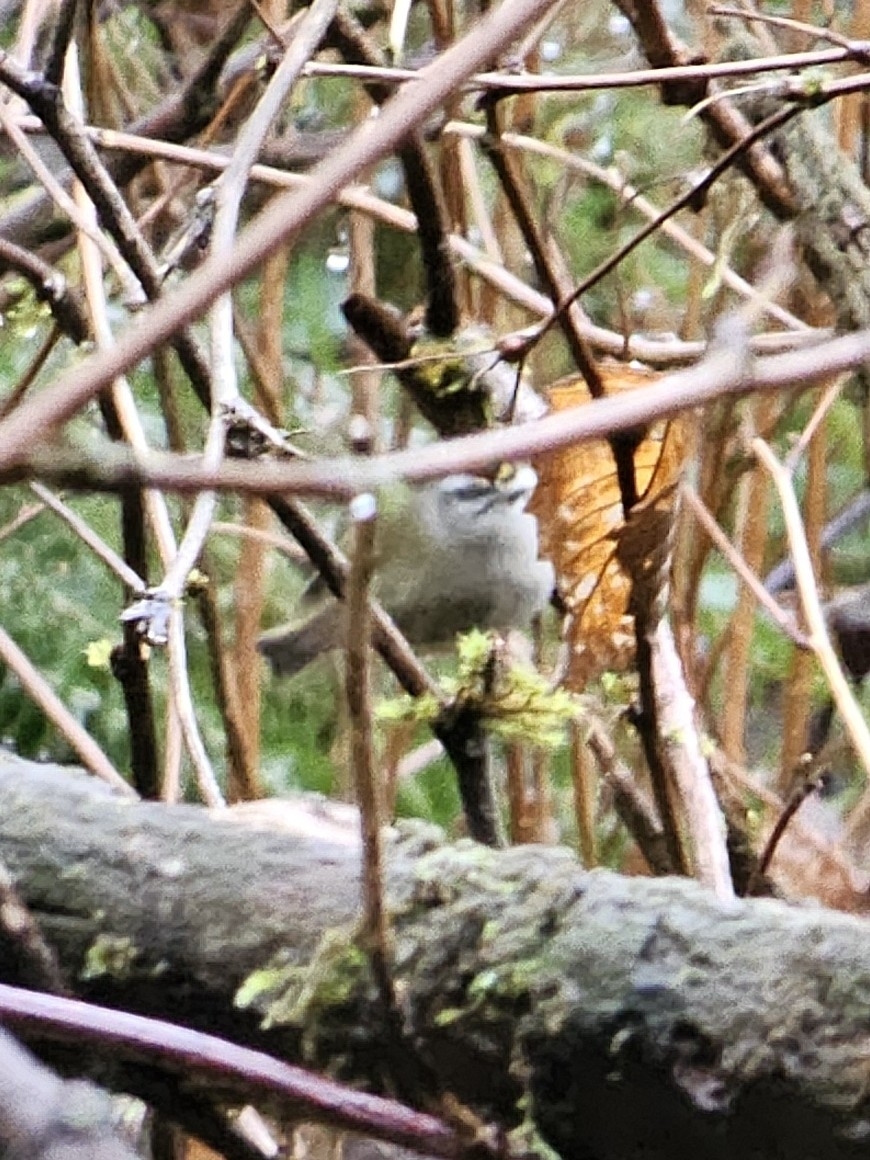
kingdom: Animalia
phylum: Chordata
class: Aves
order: Passeriformes
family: Regulidae
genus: Regulus
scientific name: Regulus satrapa
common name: Golden-crowned kinglet
